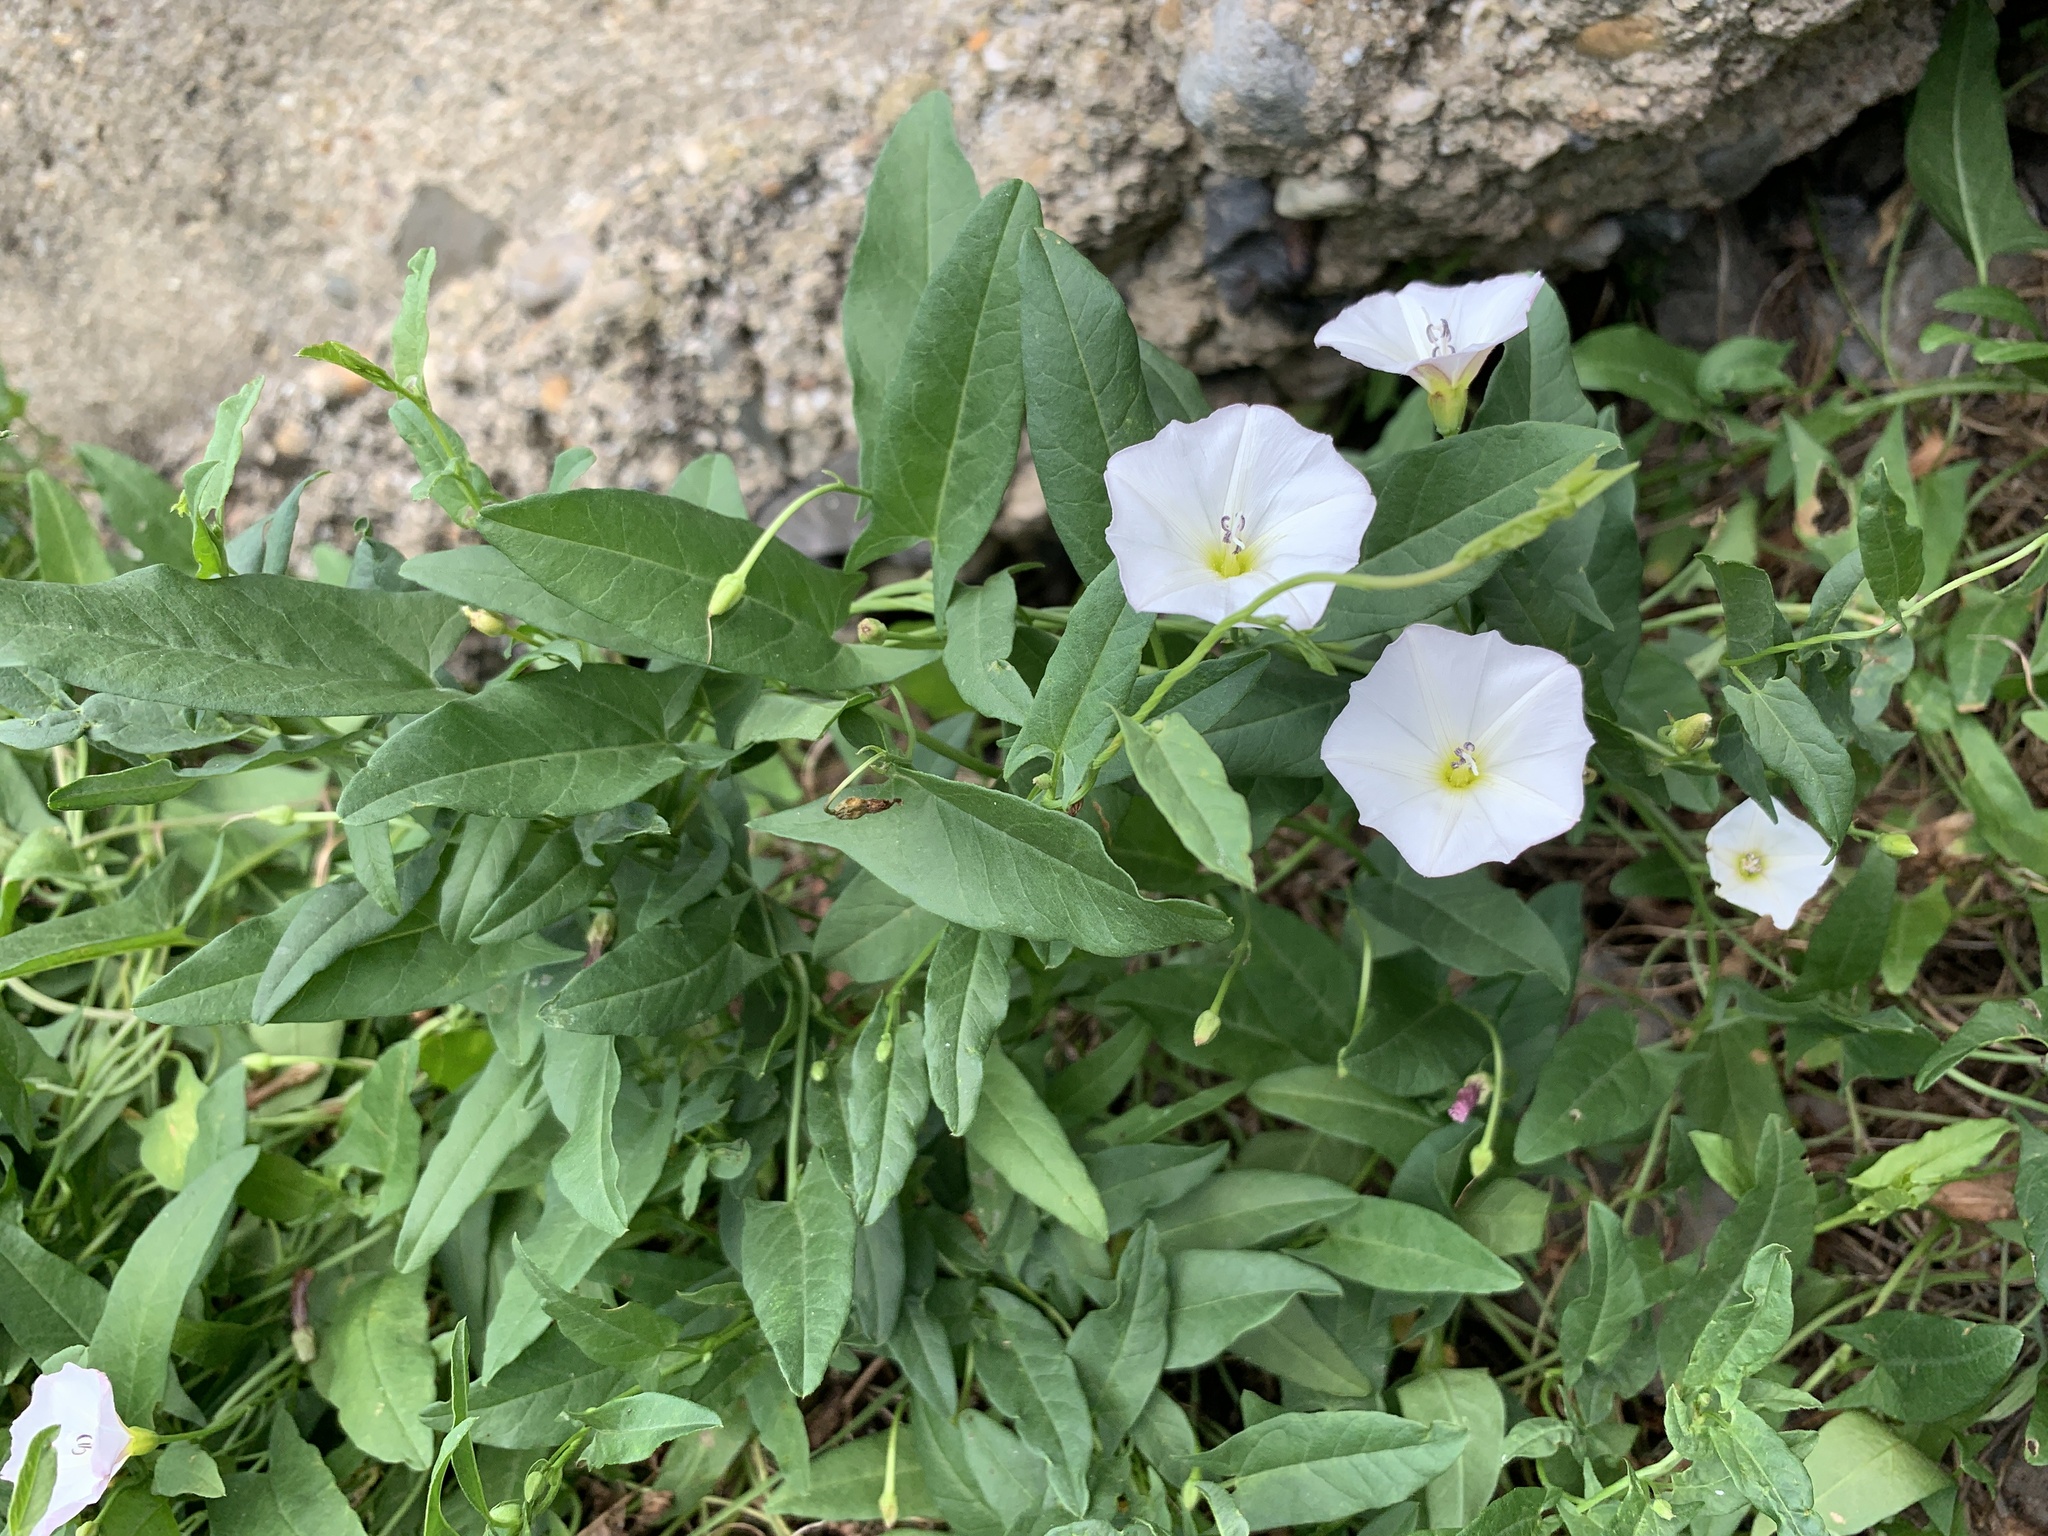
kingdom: Plantae
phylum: Tracheophyta
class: Magnoliopsida
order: Solanales
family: Convolvulaceae
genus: Convolvulus
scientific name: Convolvulus arvensis
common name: Field bindweed
